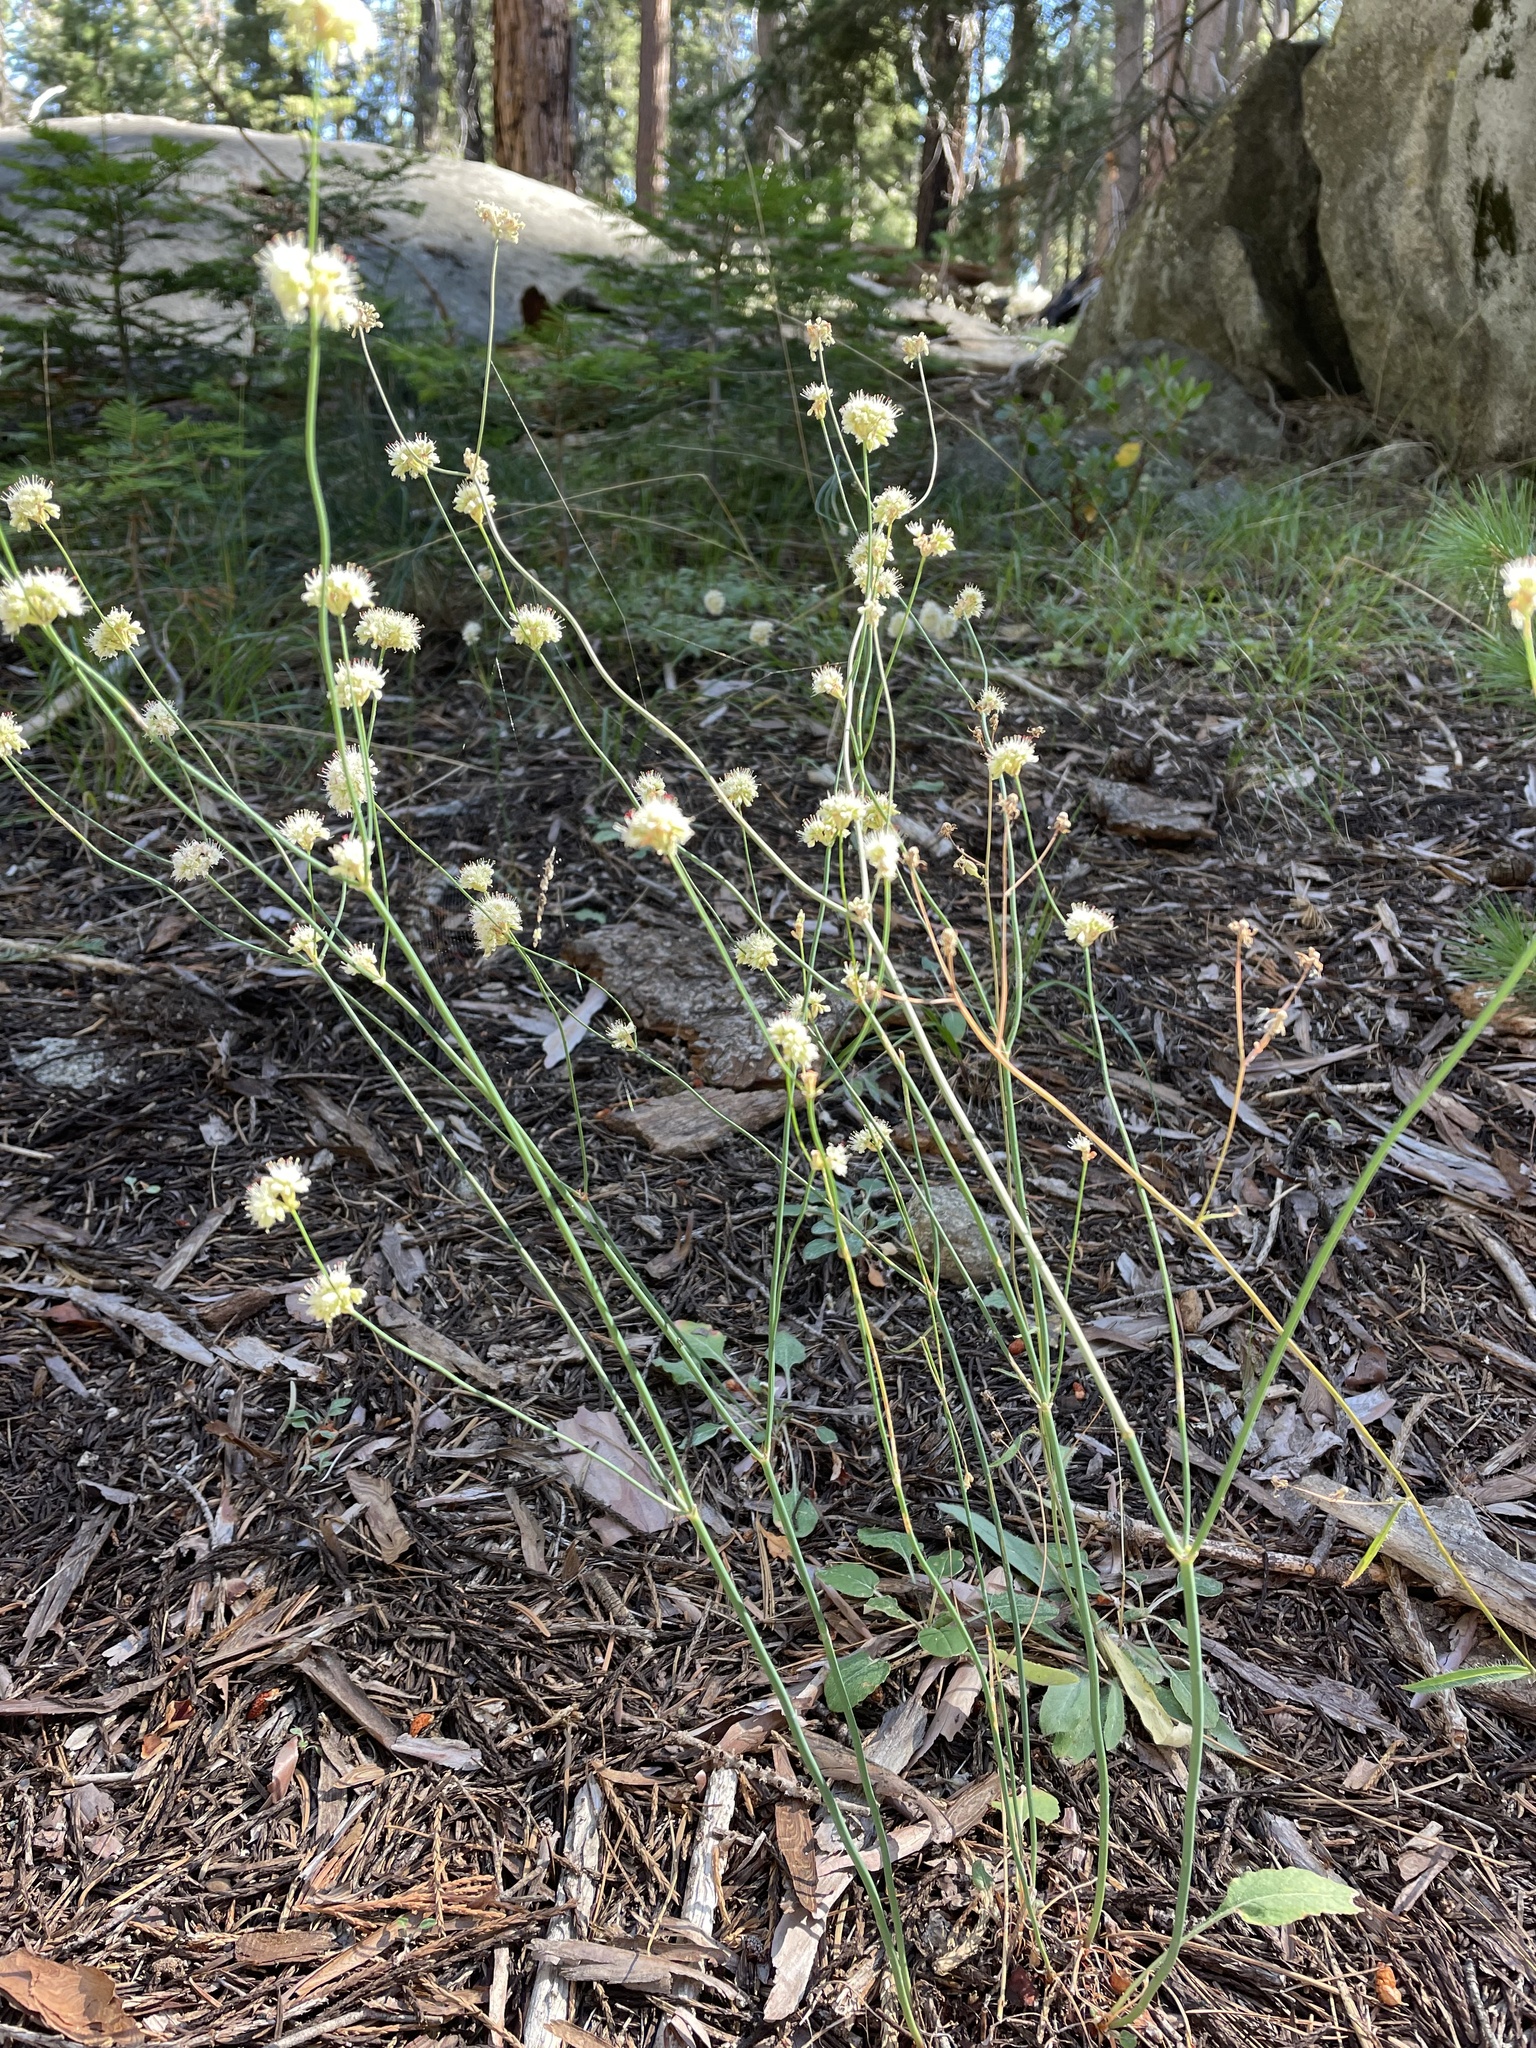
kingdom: Plantae
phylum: Tracheophyta
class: Magnoliopsida
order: Caryophyllales
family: Polygonaceae
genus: Eriogonum
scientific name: Eriogonum nudum
